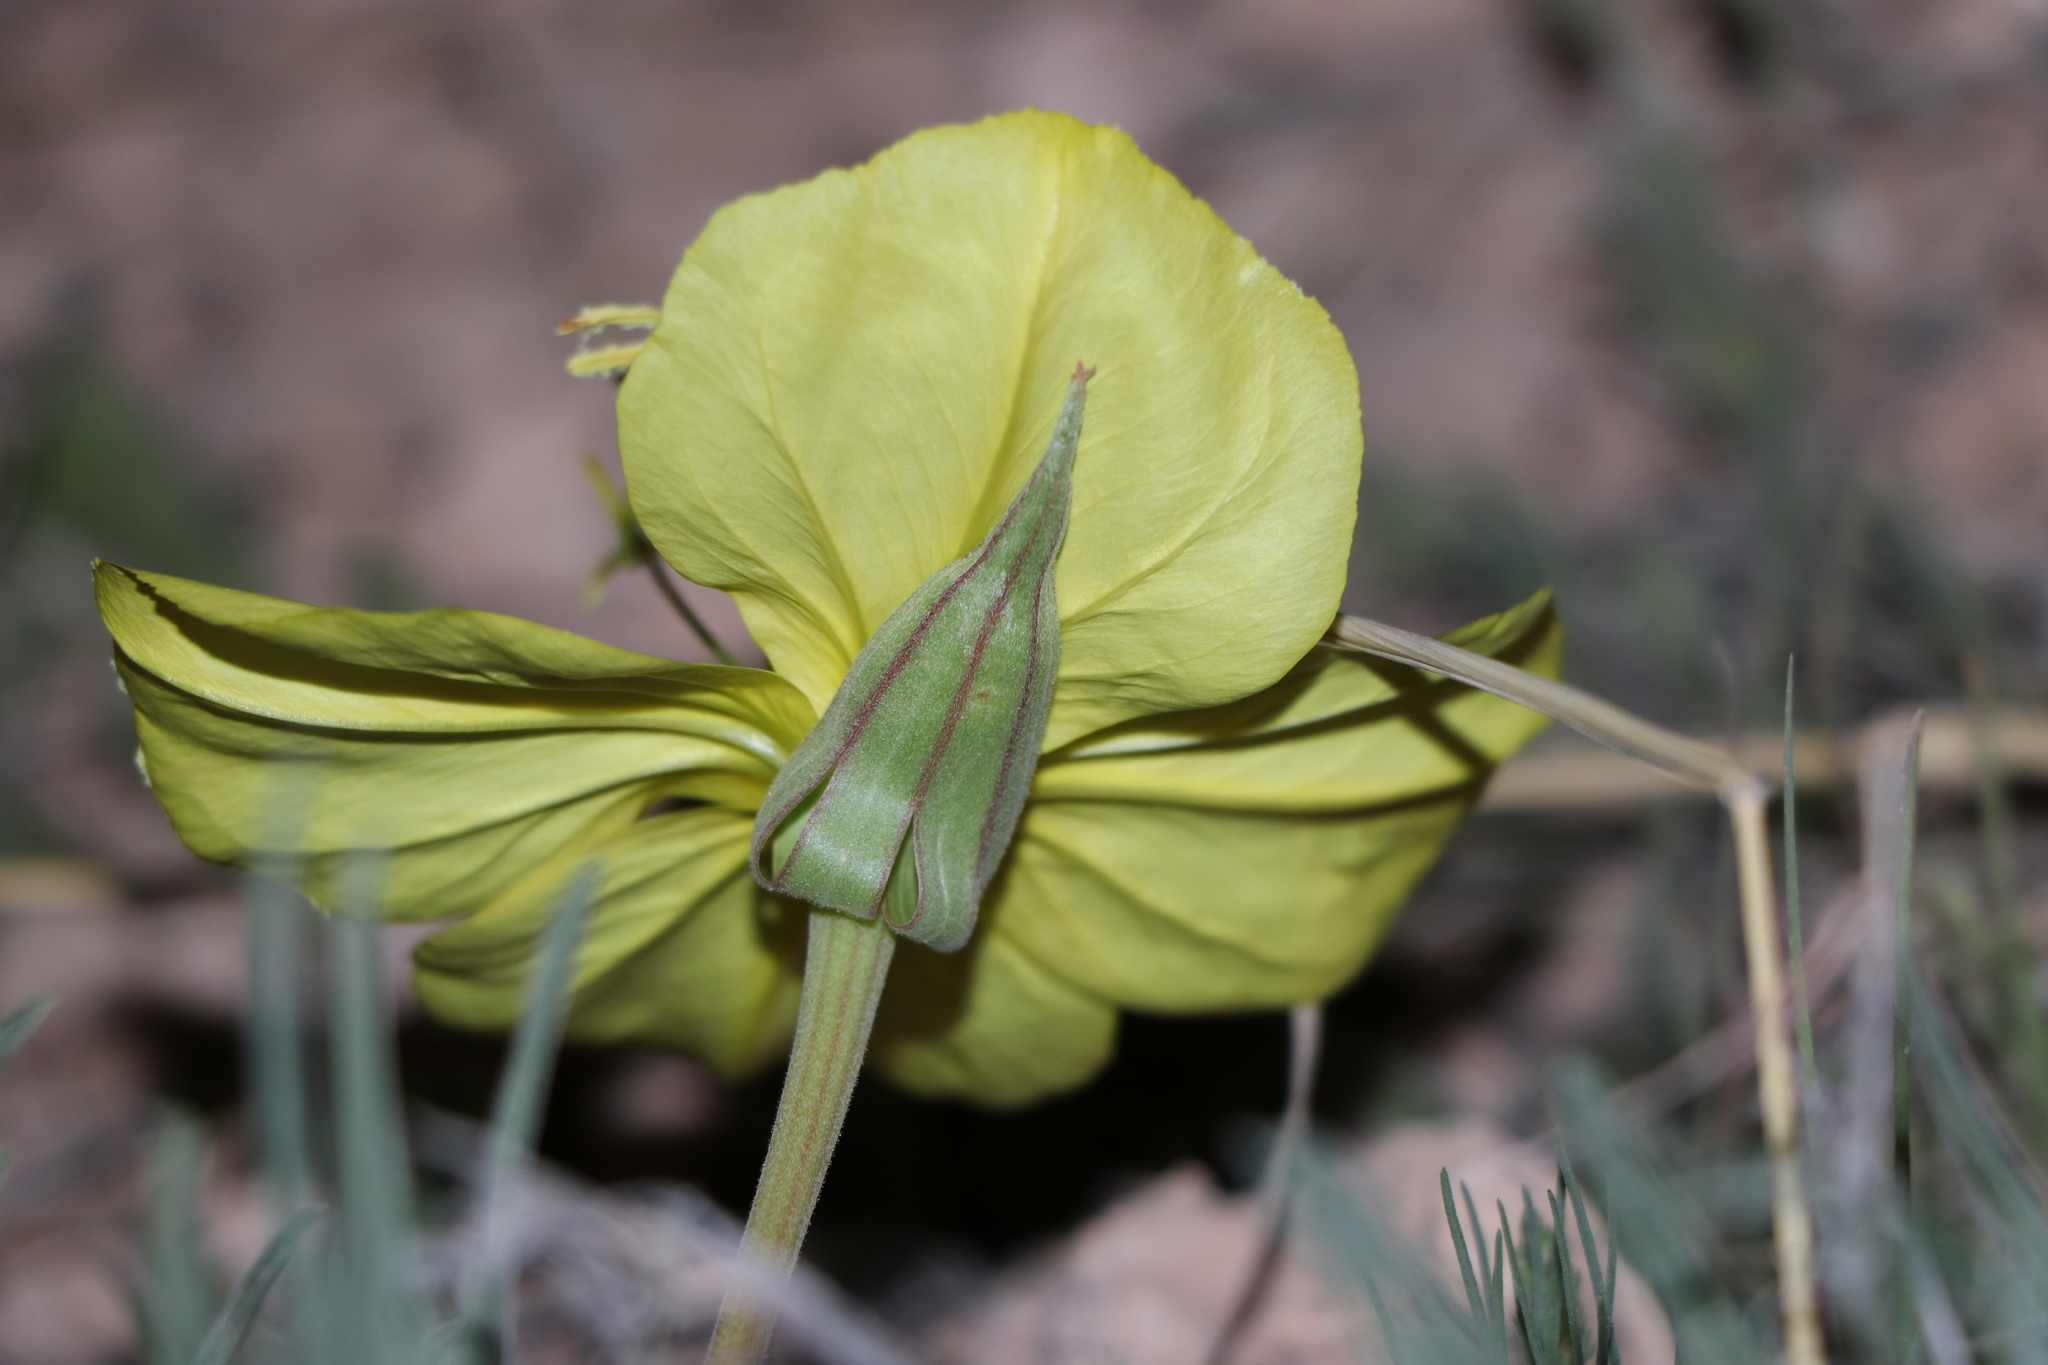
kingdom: Plantae
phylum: Tracheophyta
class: Magnoliopsida
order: Myrtales
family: Onagraceae
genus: Oenothera
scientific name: Oenothera coryi
